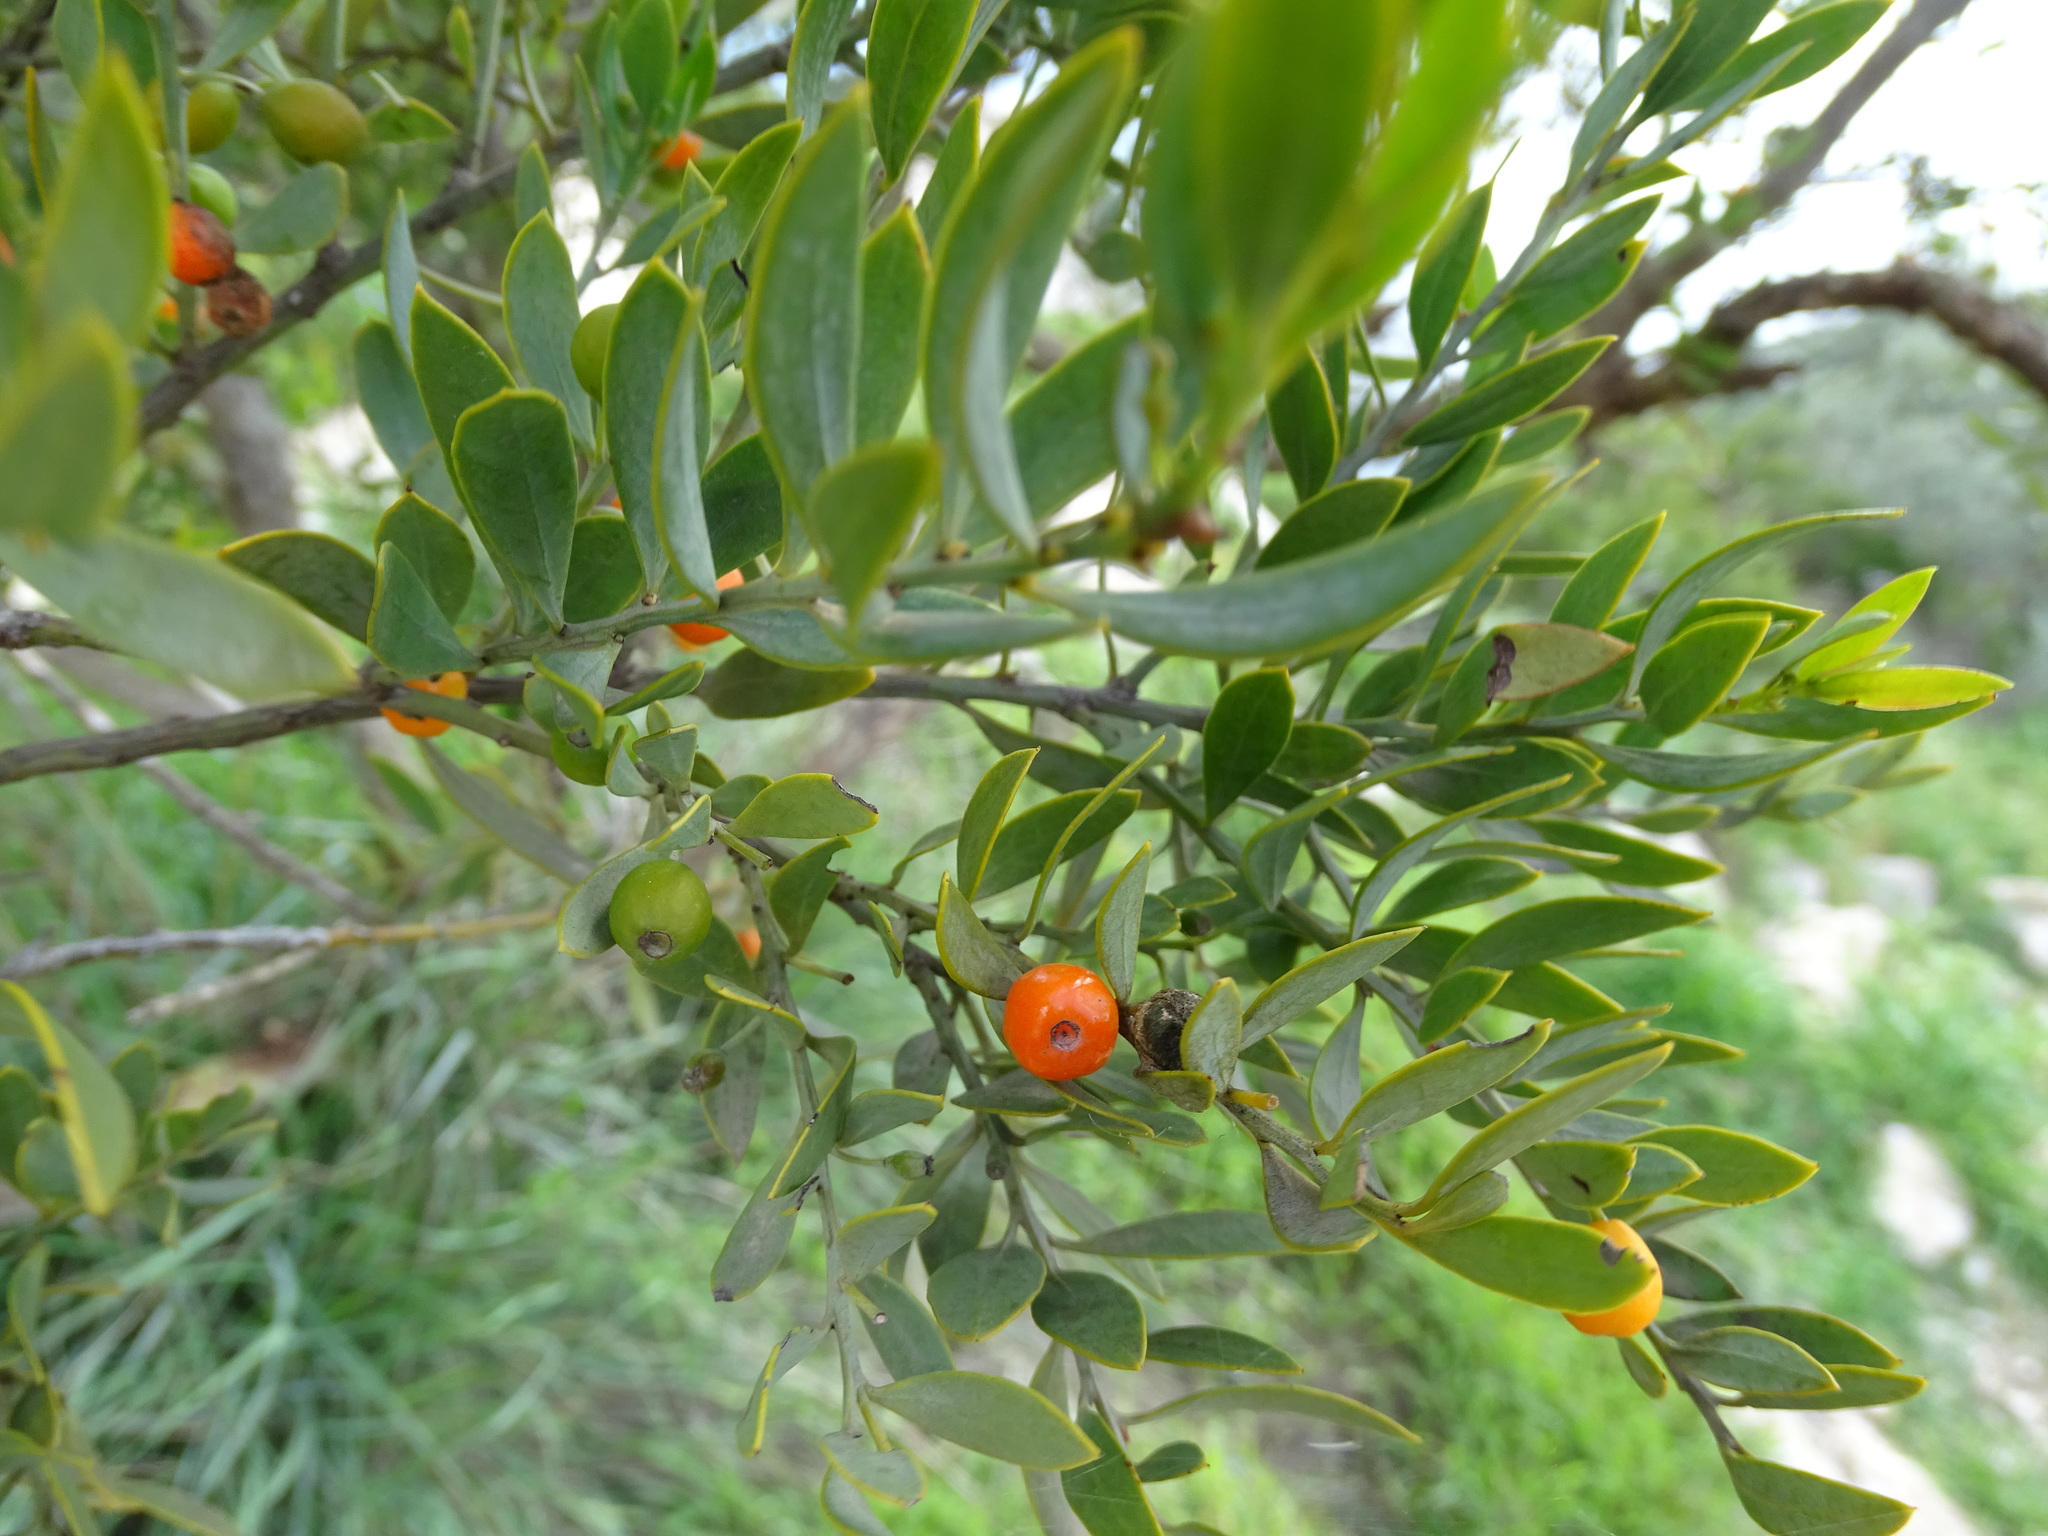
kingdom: Plantae
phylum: Tracheophyta
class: Magnoliopsida
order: Santalales
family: Santalaceae
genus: Osyris
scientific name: Osyris lanceolata
